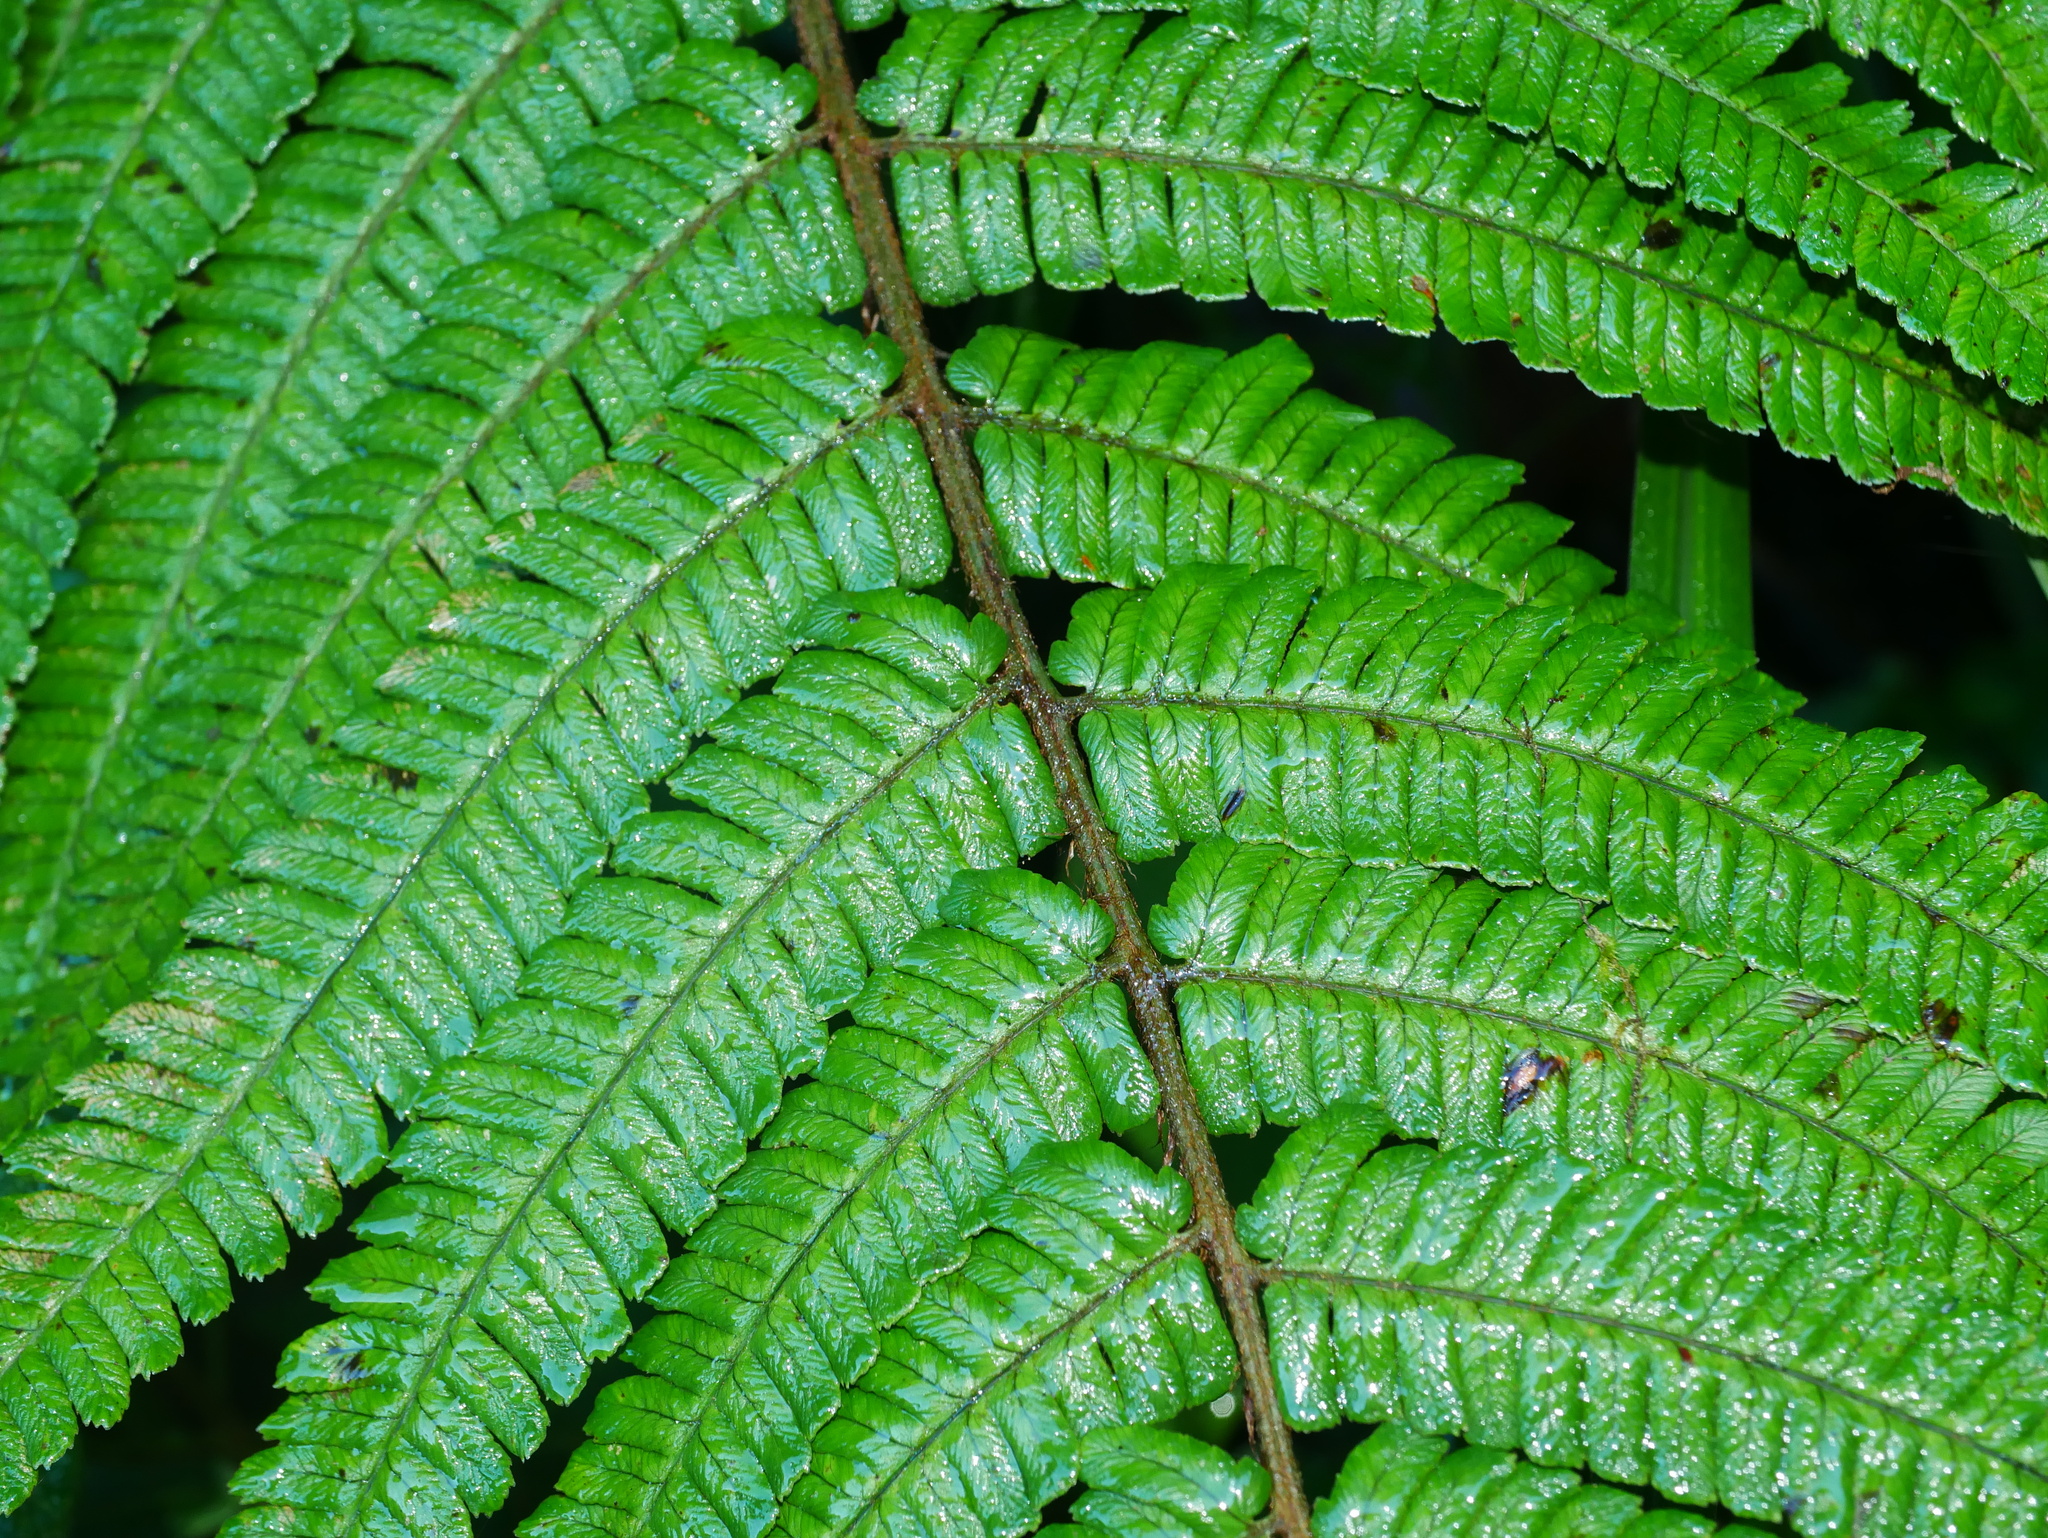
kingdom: Plantae
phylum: Tracheophyta
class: Polypodiopsida
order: Polypodiales
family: Dryopteridaceae
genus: Dryopteris
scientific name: Dryopteris wallichiana
